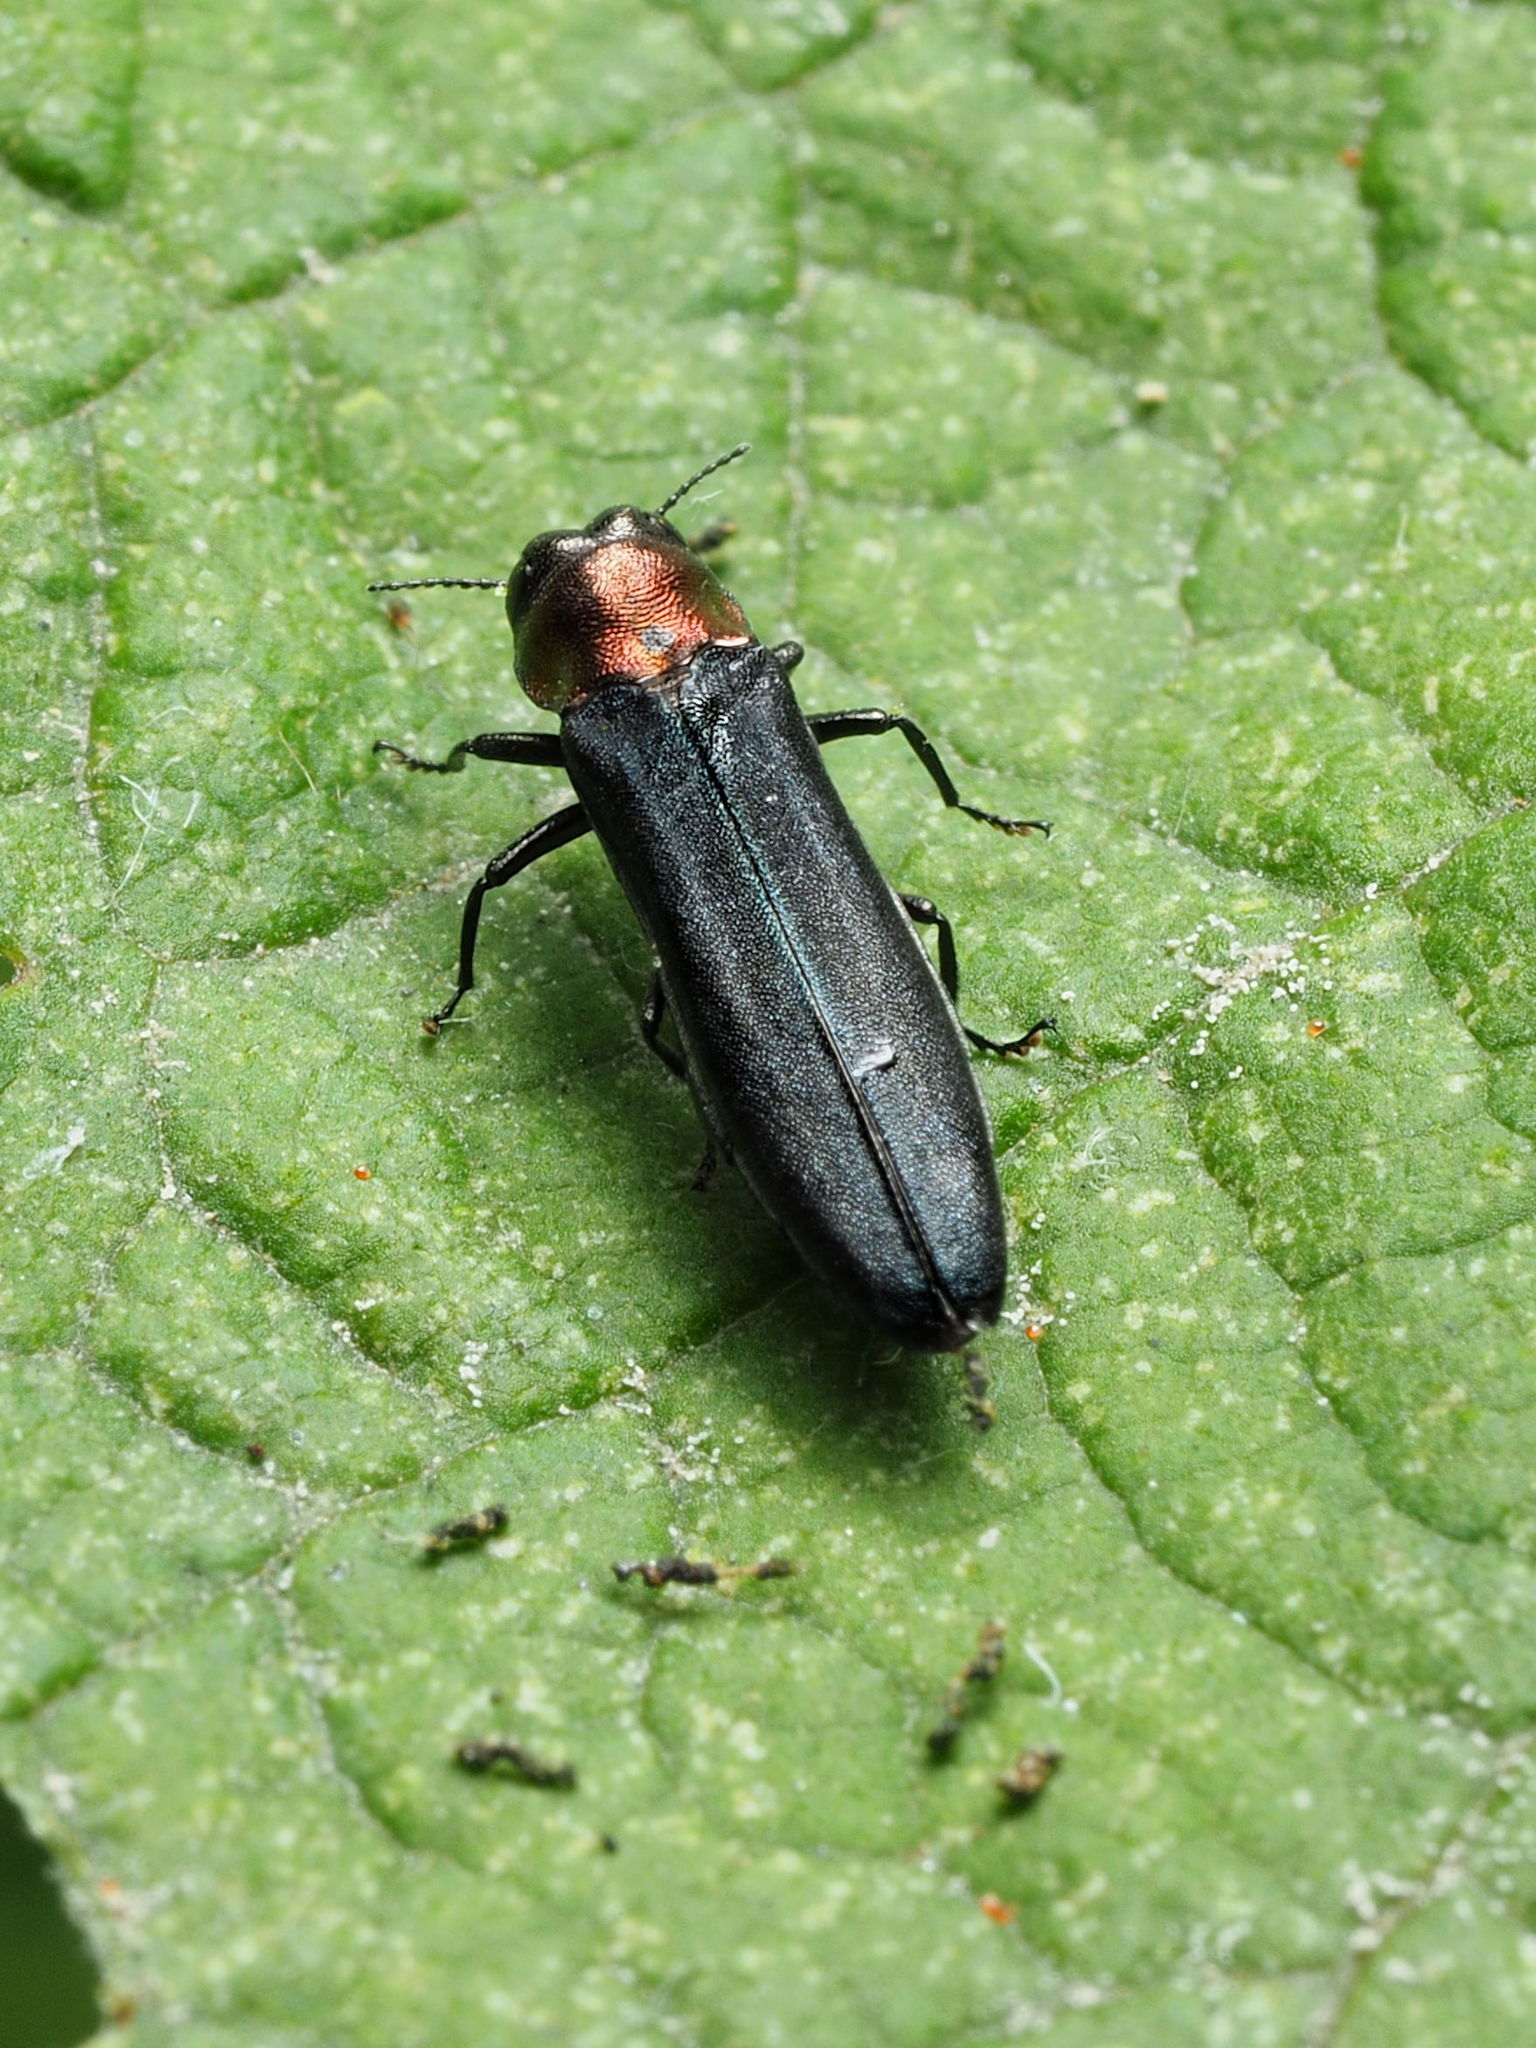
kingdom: Animalia
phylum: Arthropoda
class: Insecta
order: Coleoptera
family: Buprestidae
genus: Agrilus
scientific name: Agrilus ruficollis
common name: Red-necked cane borer beetle
